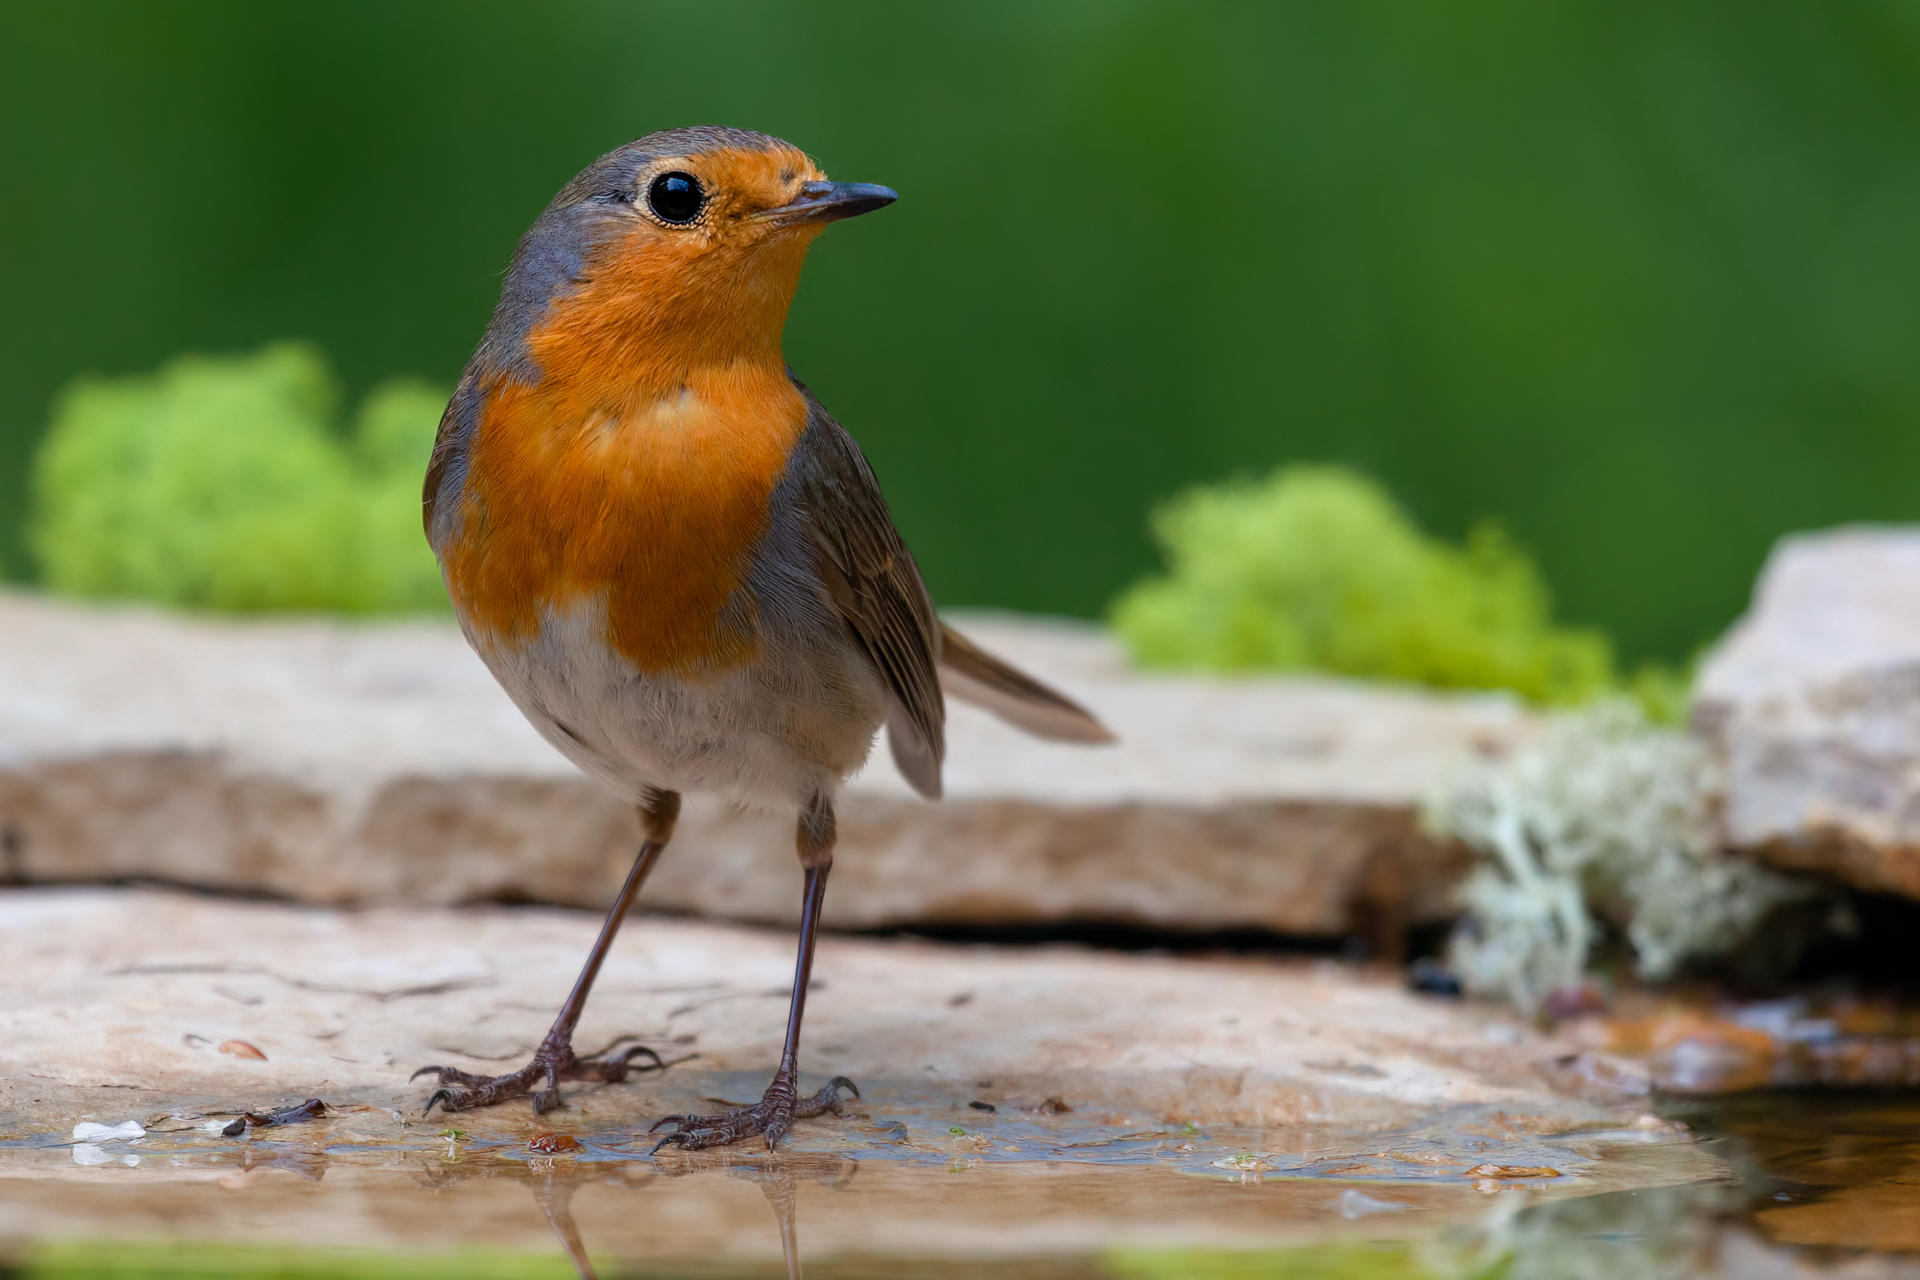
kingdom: Animalia
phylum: Chordata
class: Aves
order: Passeriformes
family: Muscicapidae
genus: Erithacus
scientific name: Erithacus rubecula
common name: European robin
